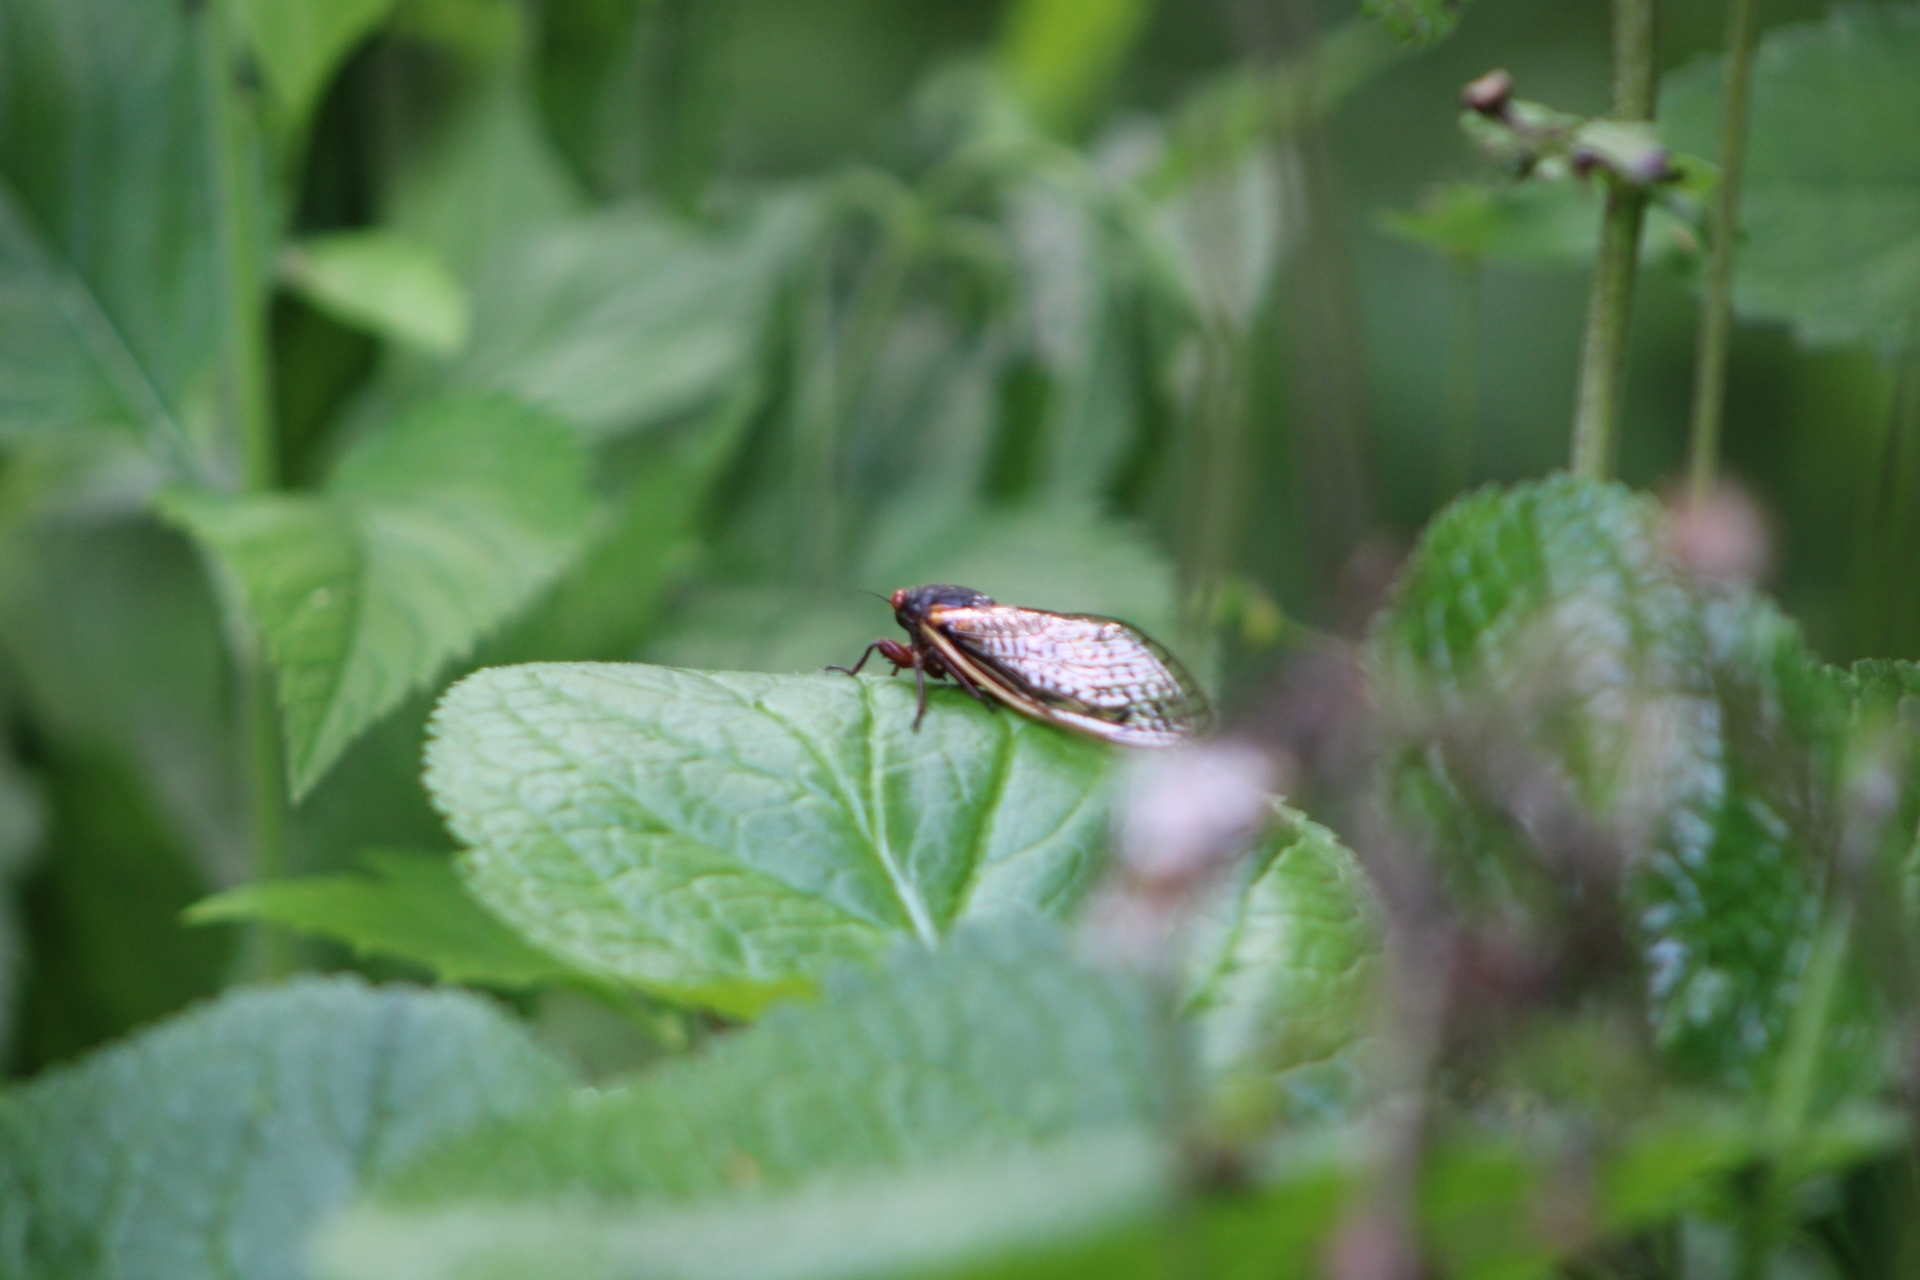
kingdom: Animalia
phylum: Arthropoda
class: Insecta
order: Hemiptera
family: Cicadidae
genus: Magicicada
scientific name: Magicicada
